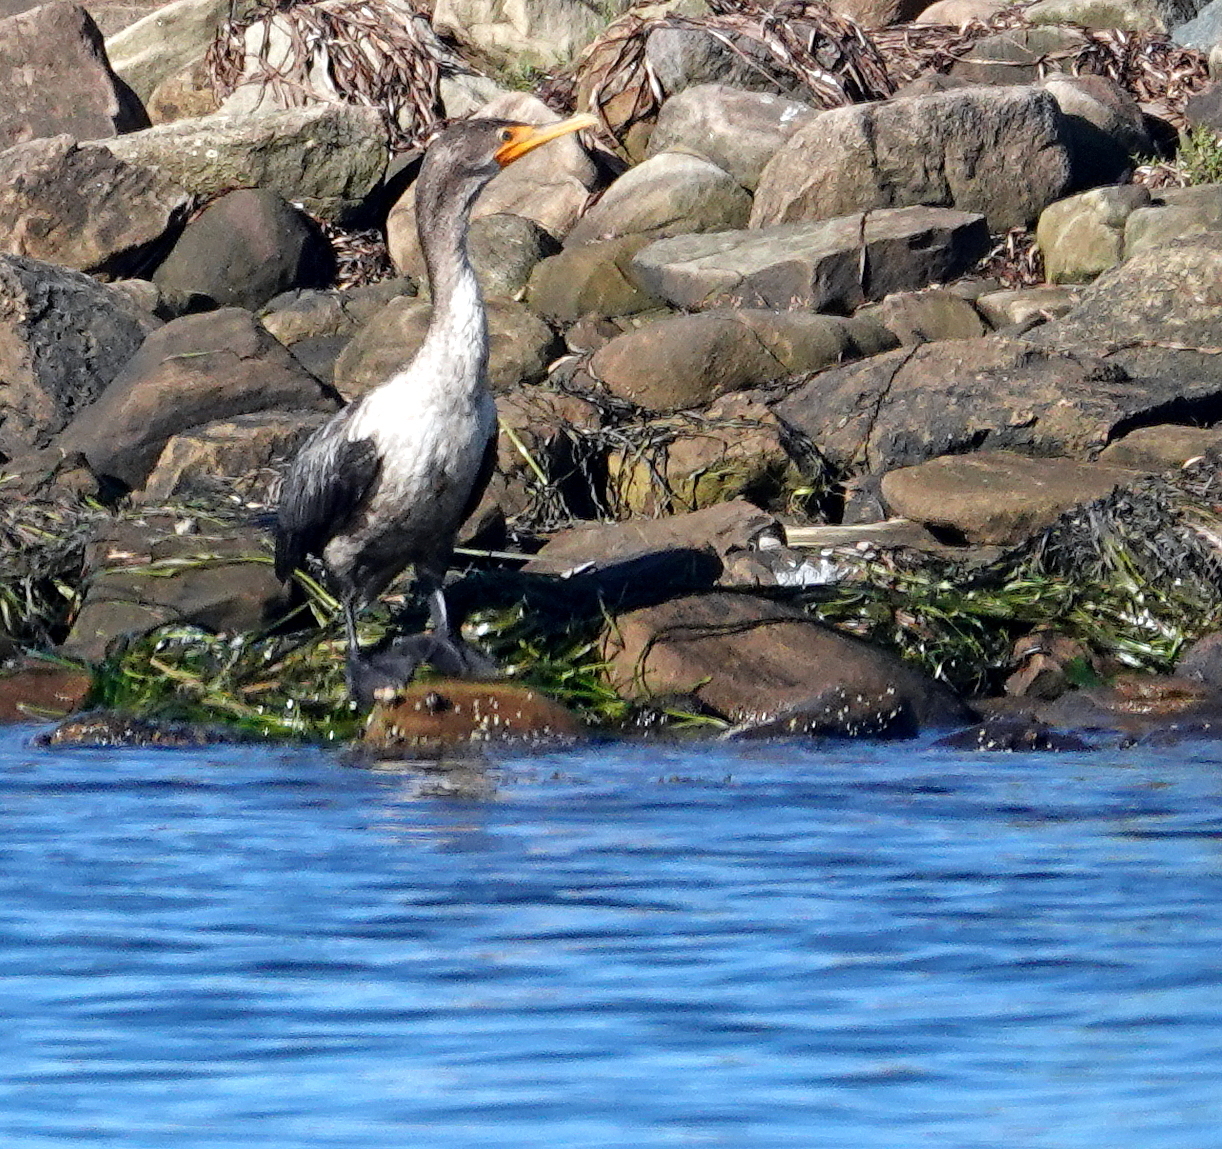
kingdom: Animalia
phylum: Chordata
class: Aves
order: Suliformes
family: Phalacrocoracidae
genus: Phalacrocorax
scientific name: Phalacrocorax auritus
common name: Double-crested cormorant
